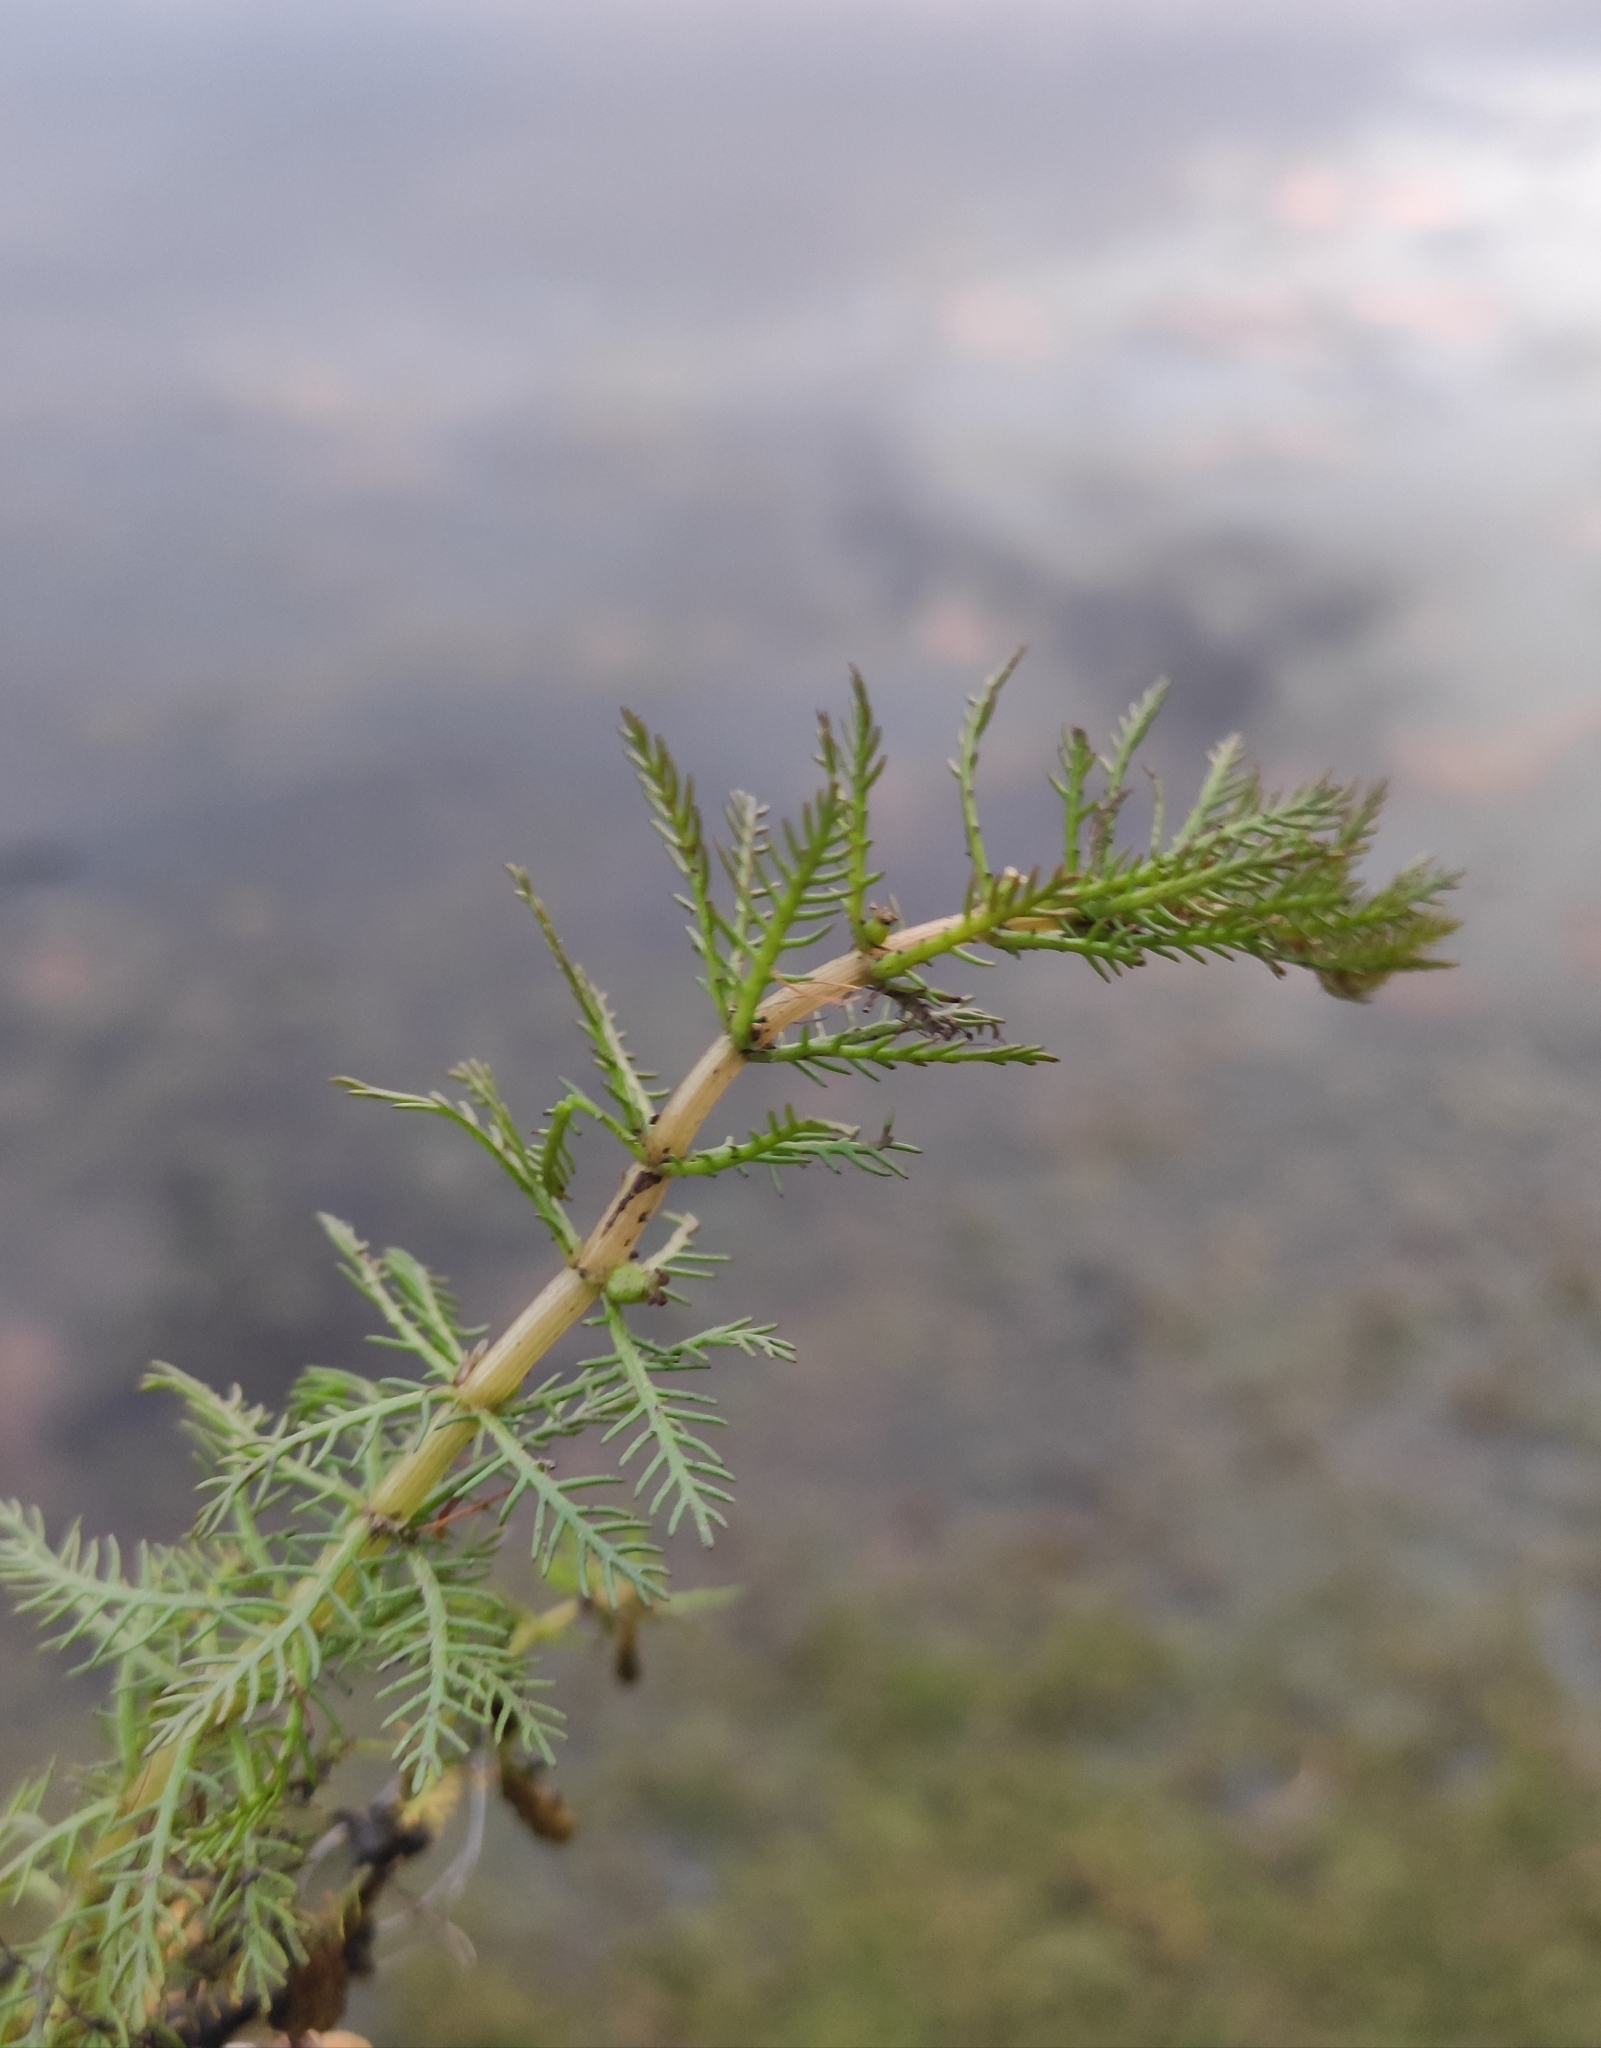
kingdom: Plantae
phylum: Tracheophyta
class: Magnoliopsida
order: Saxifragales
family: Haloragaceae
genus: Myriophyllum
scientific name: Myriophyllum verticillatum
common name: Whorled water-milfoil
